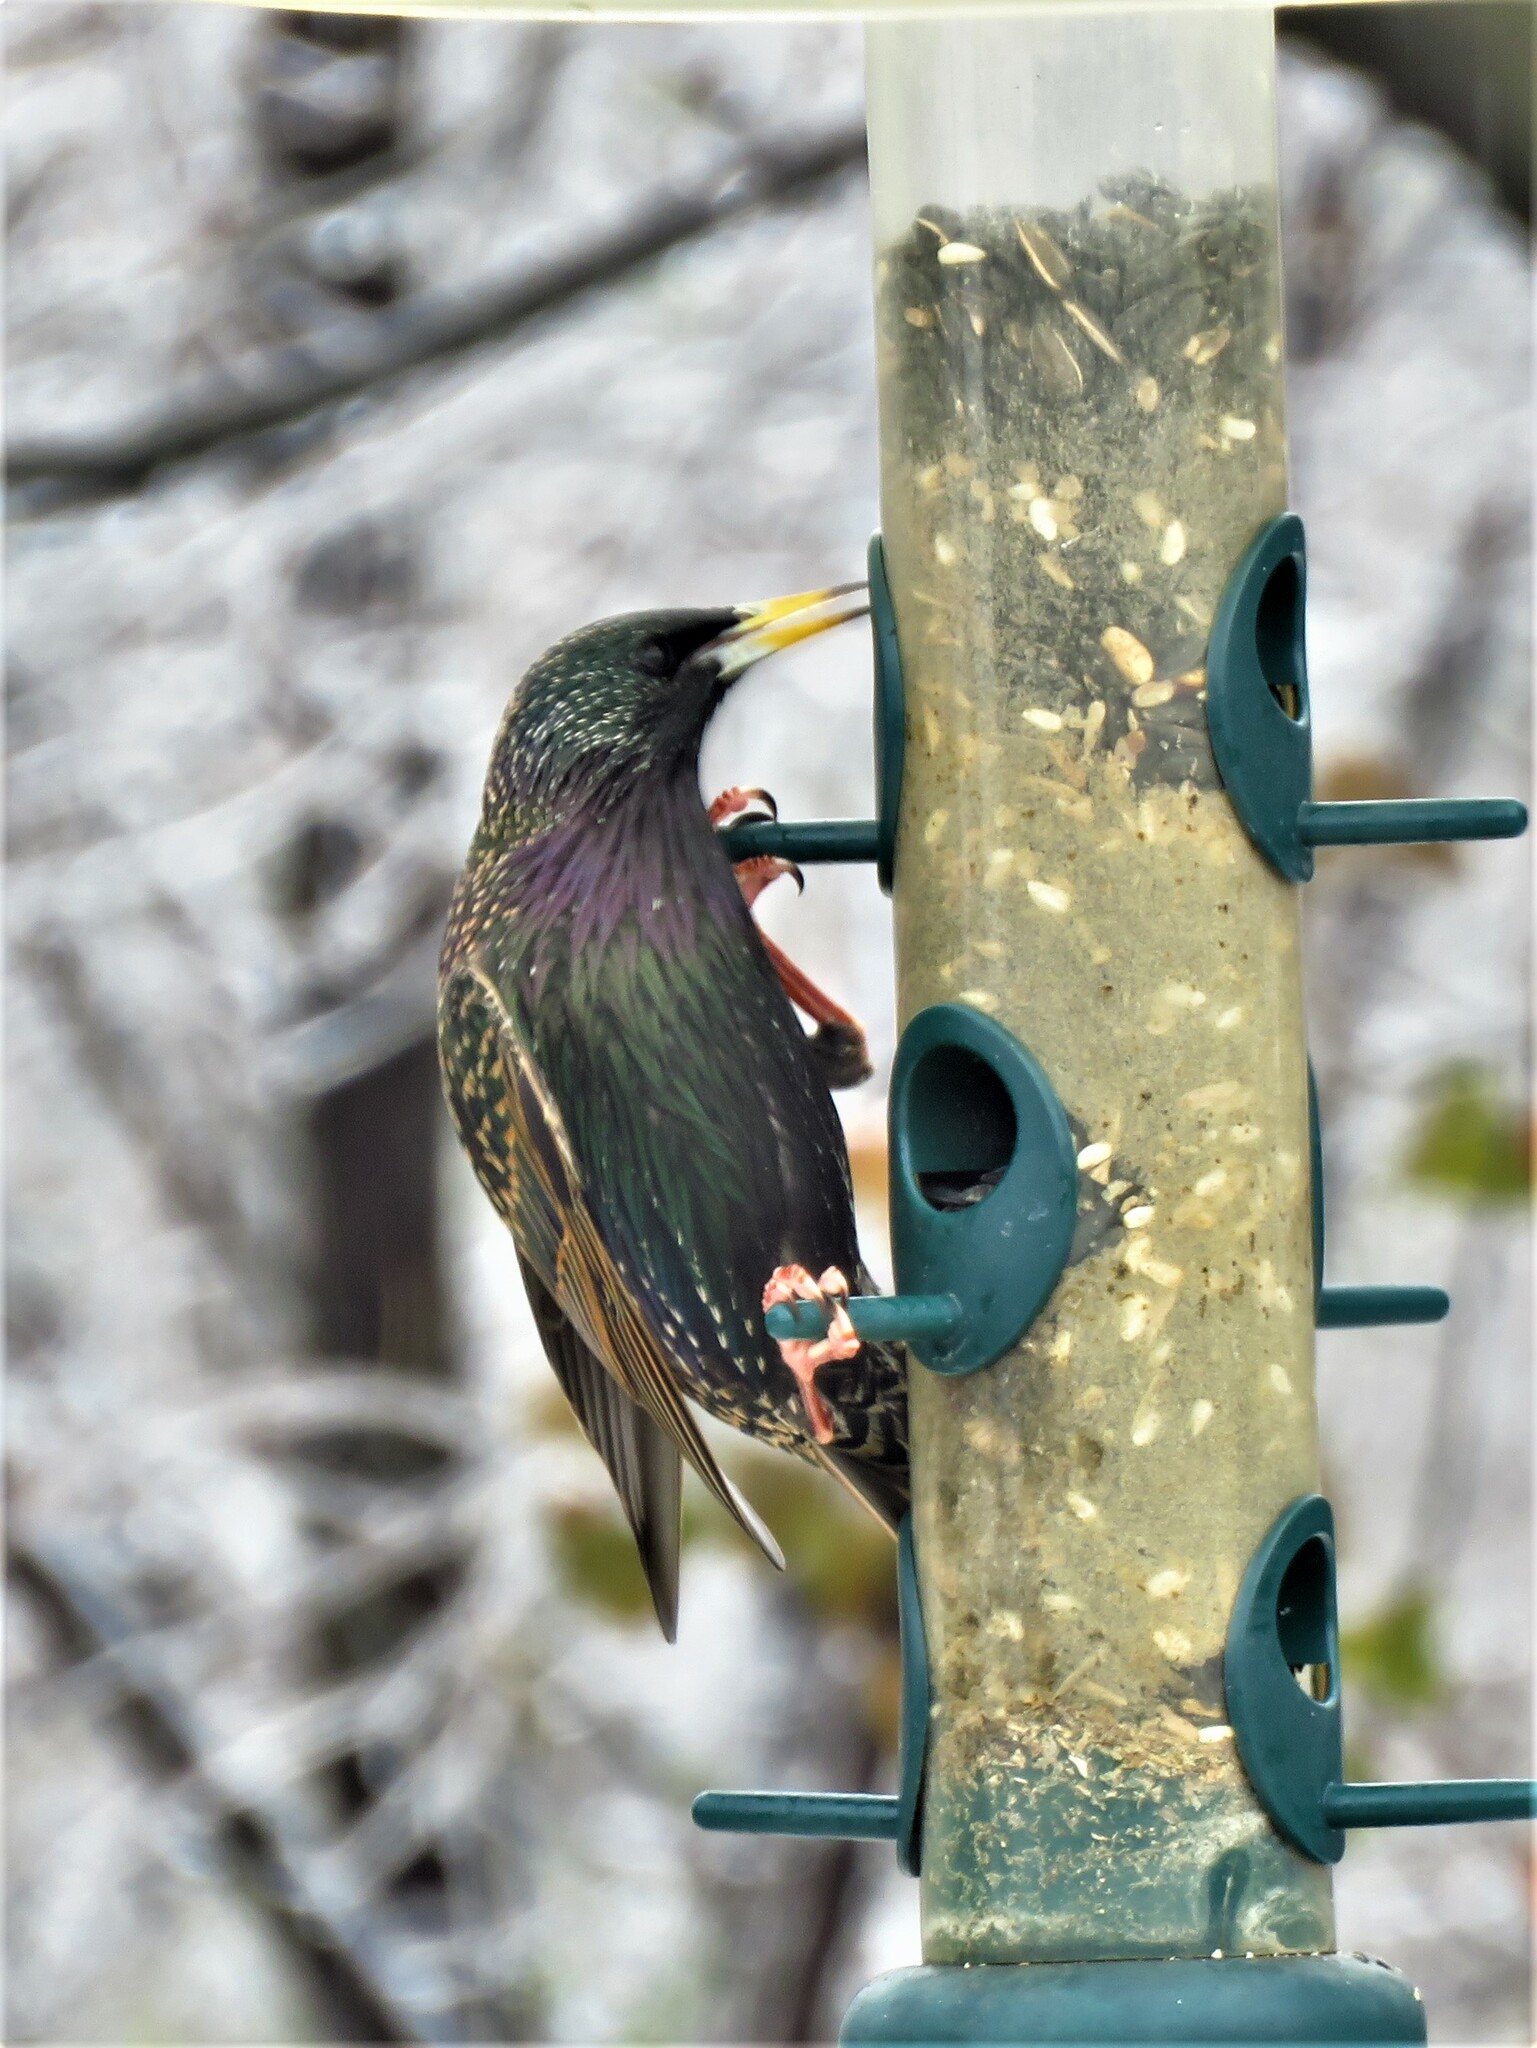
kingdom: Animalia
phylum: Chordata
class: Aves
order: Passeriformes
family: Sturnidae
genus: Sturnus
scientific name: Sturnus vulgaris
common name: Common starling
